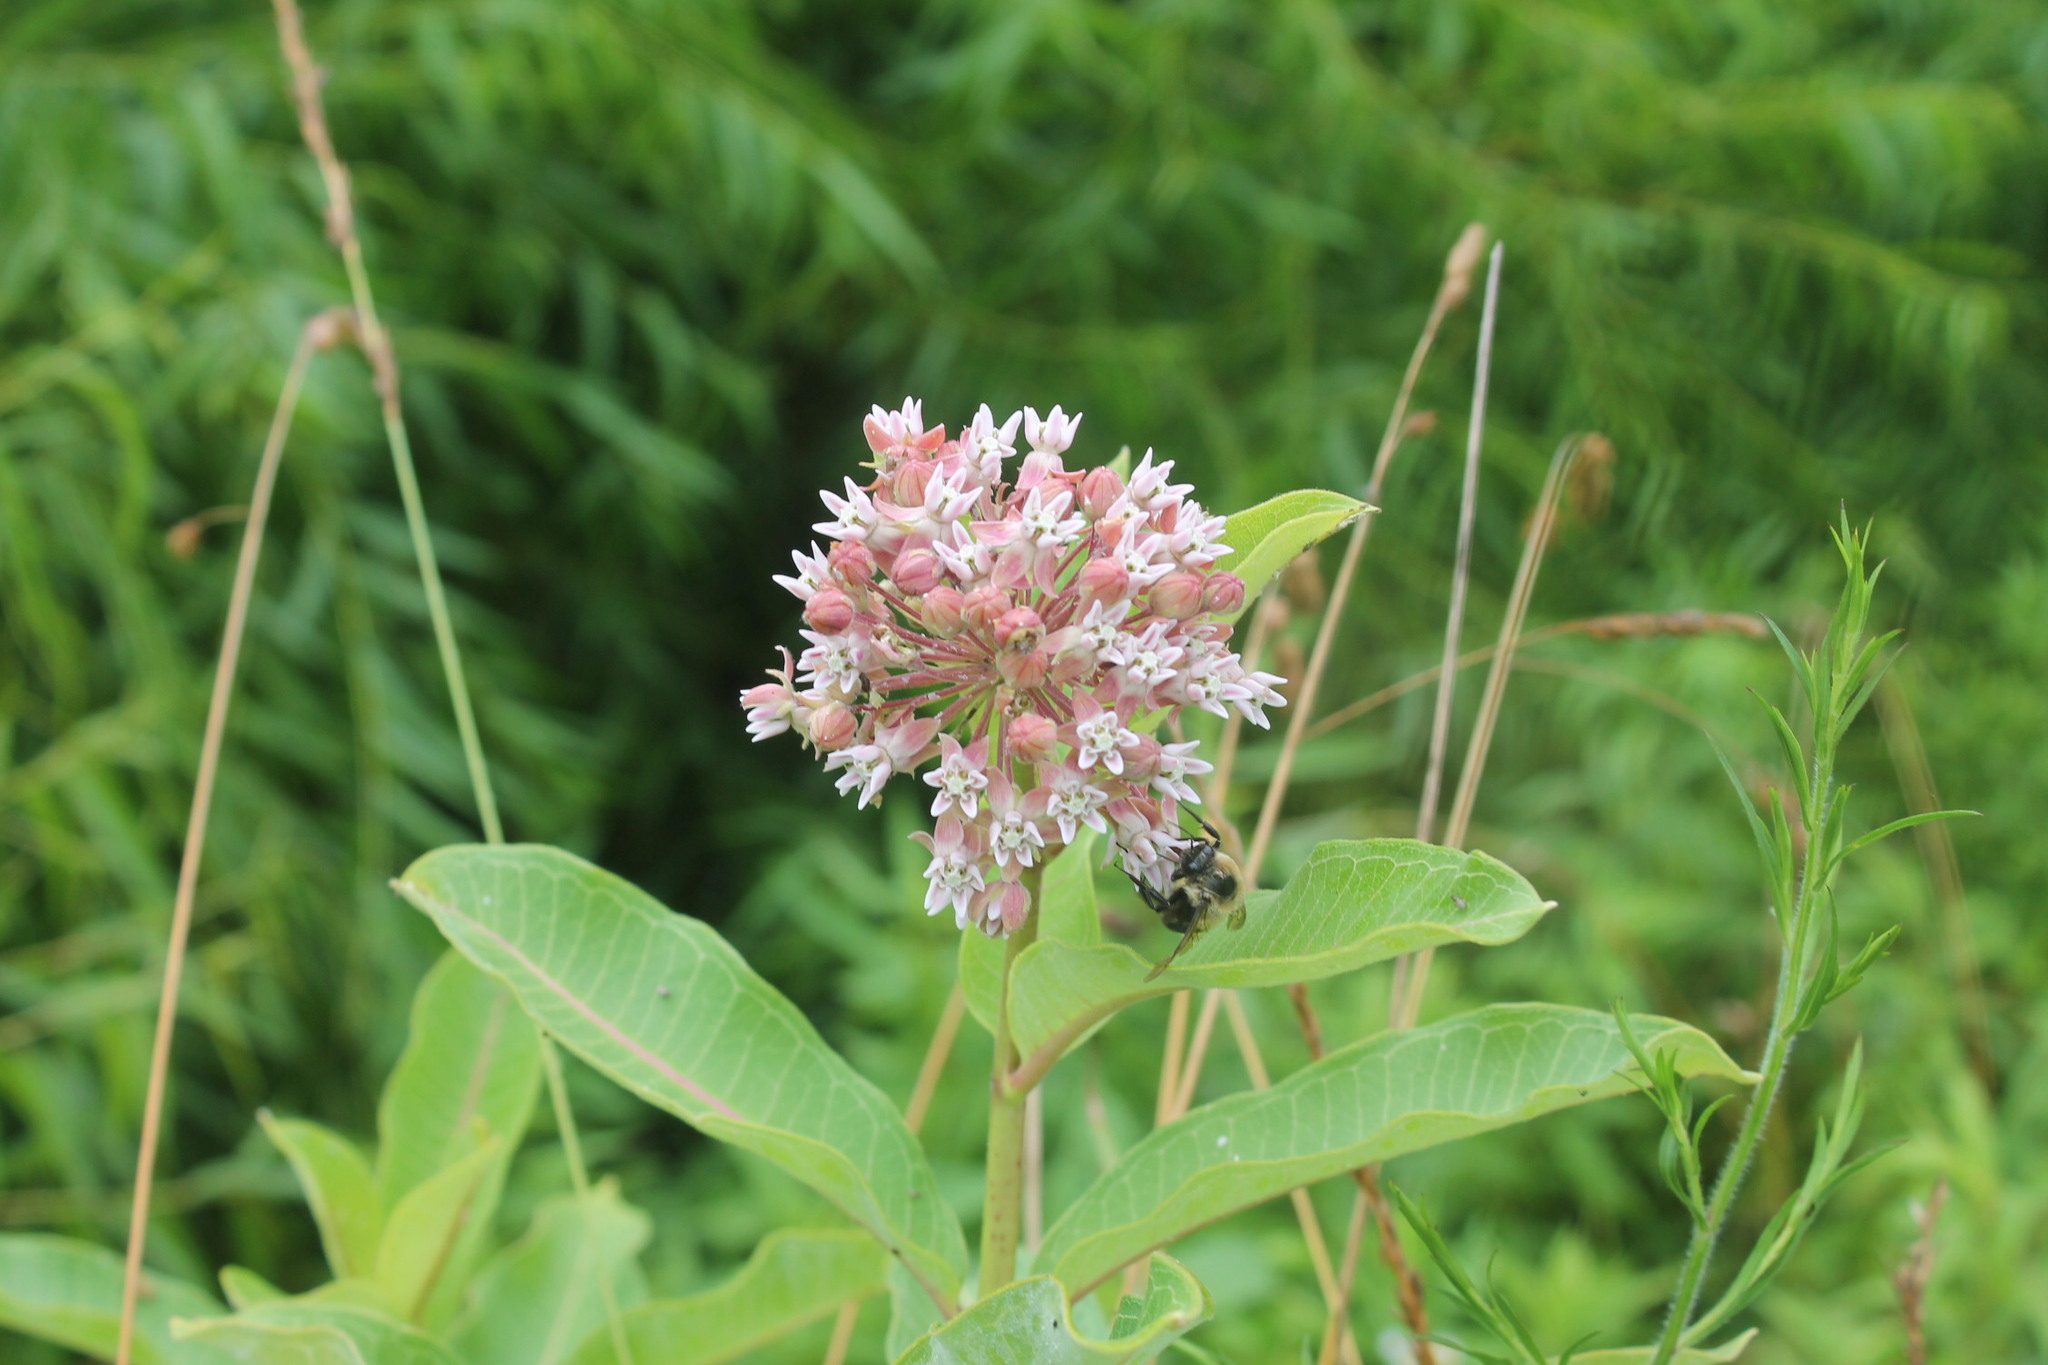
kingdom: Plantae
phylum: Tracheophyta
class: Magnoliopsida
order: Gentianales
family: Apocynaceae
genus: Asclepias
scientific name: Asclepias syriaca
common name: Common milkweed
